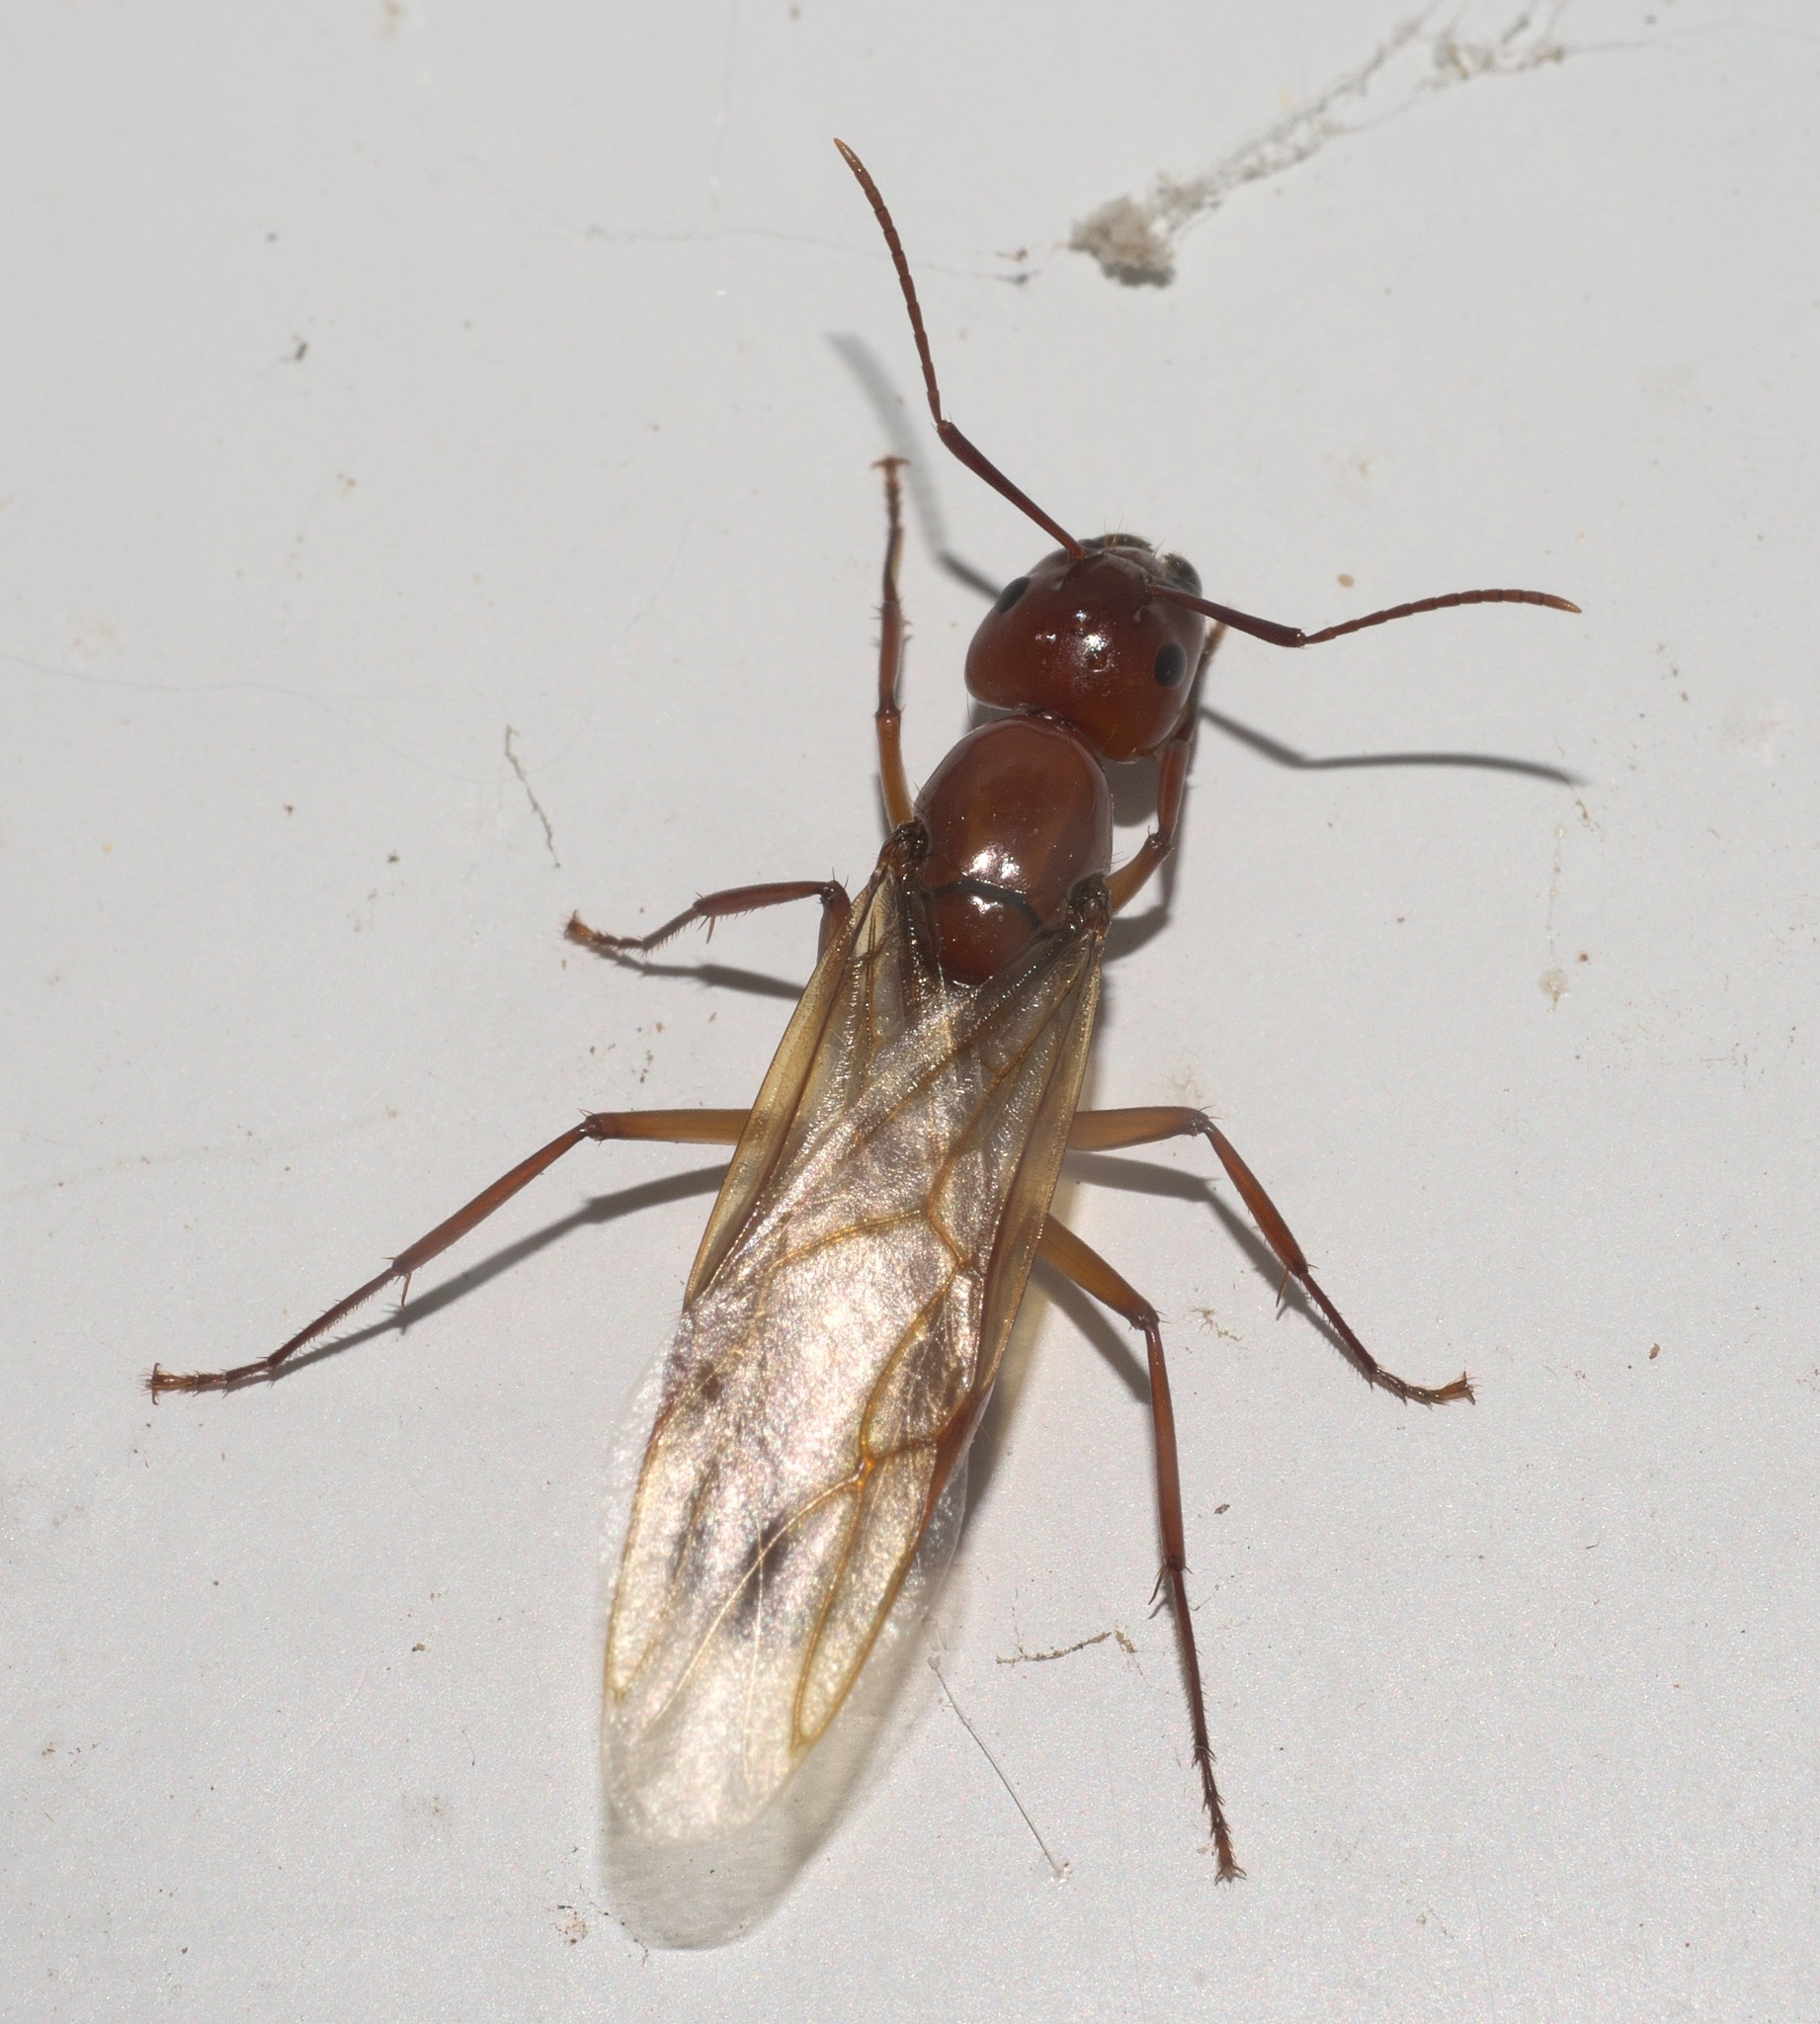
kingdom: Animalia
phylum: Arthropoda
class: Insecta
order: Hymenoptera
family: Formicidae
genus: Camponotus
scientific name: Camponotus castaneus
